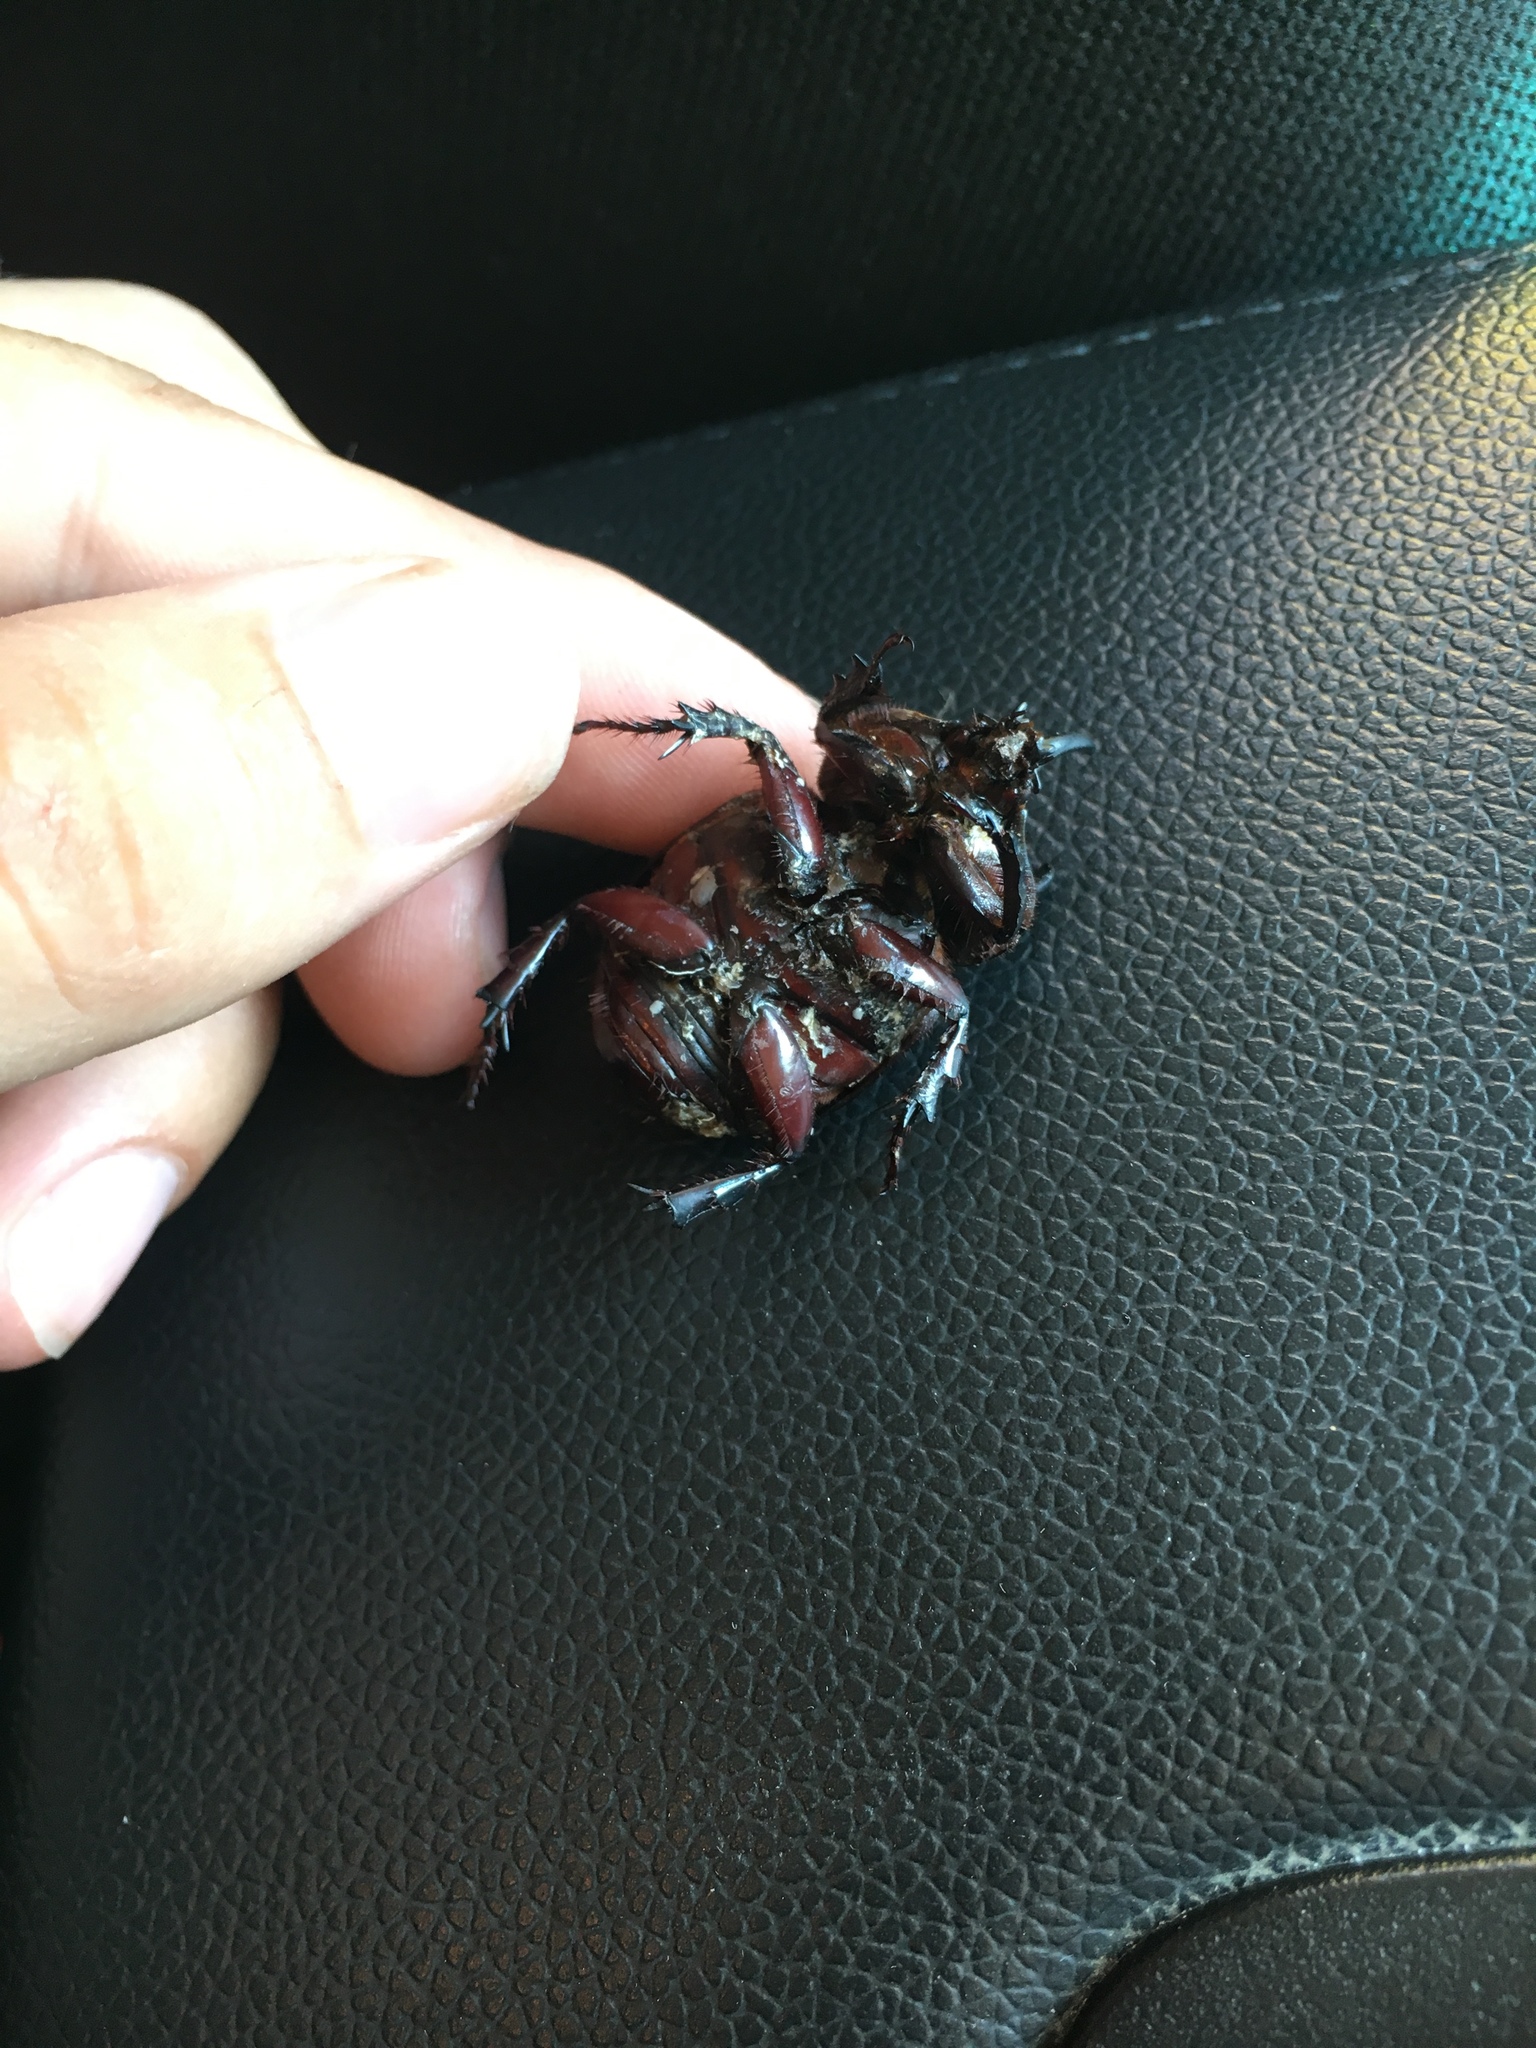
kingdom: Animalia
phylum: Arthropoda
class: Insecta
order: Coleoptera
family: Scarabaeidae
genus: Strategus
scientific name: Strategus antaeus
